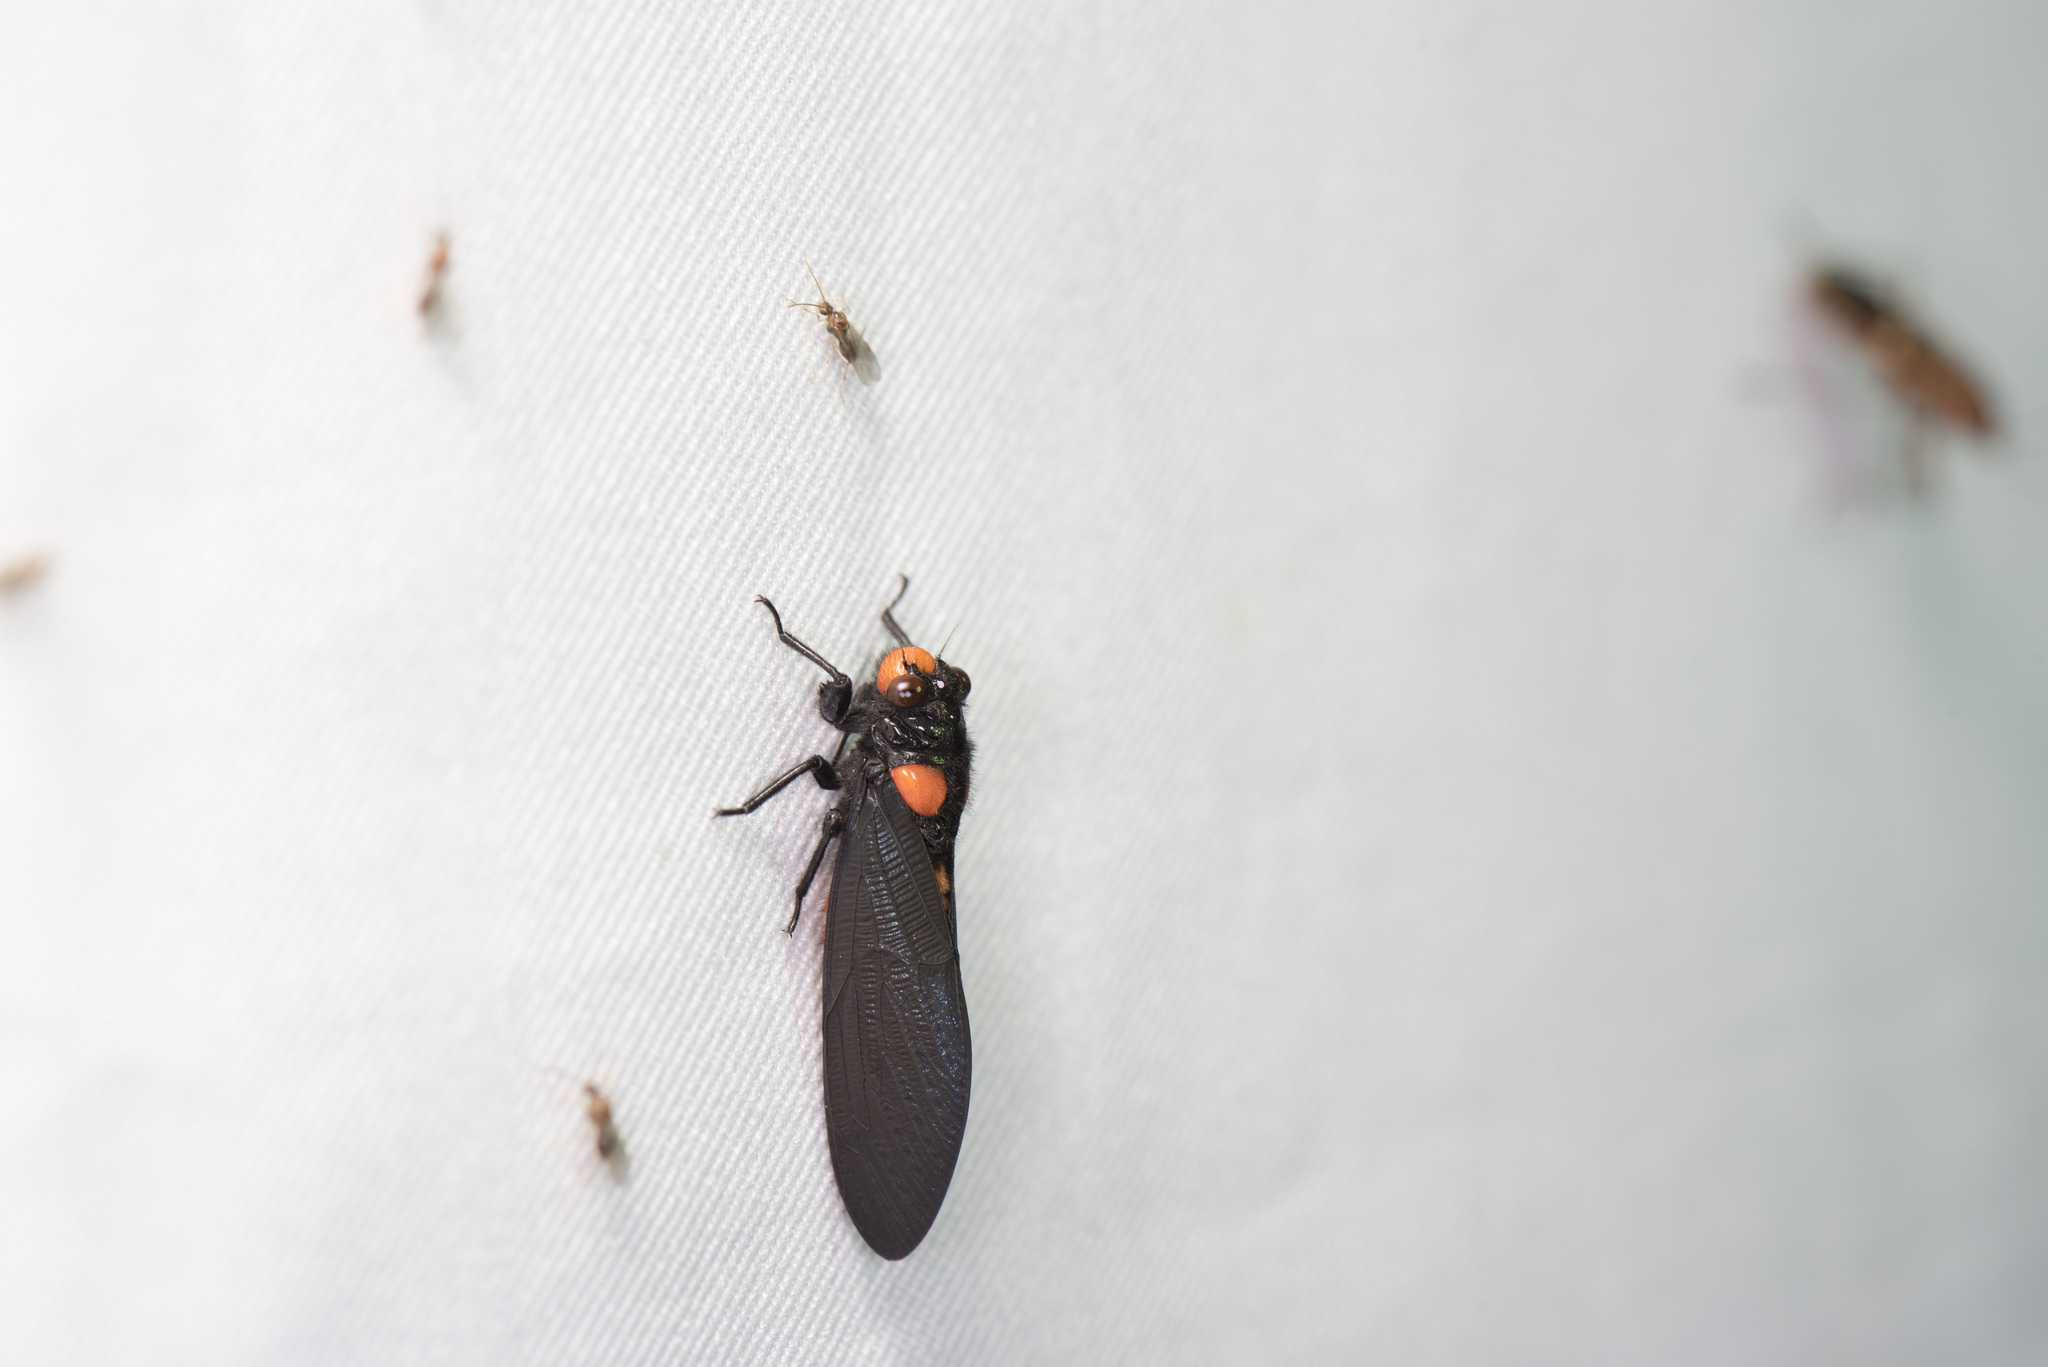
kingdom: Animalia
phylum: Arthropoda
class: Insecta
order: Hemiptera
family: Cicadidae
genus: Huechys
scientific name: Huechys sanguinea
